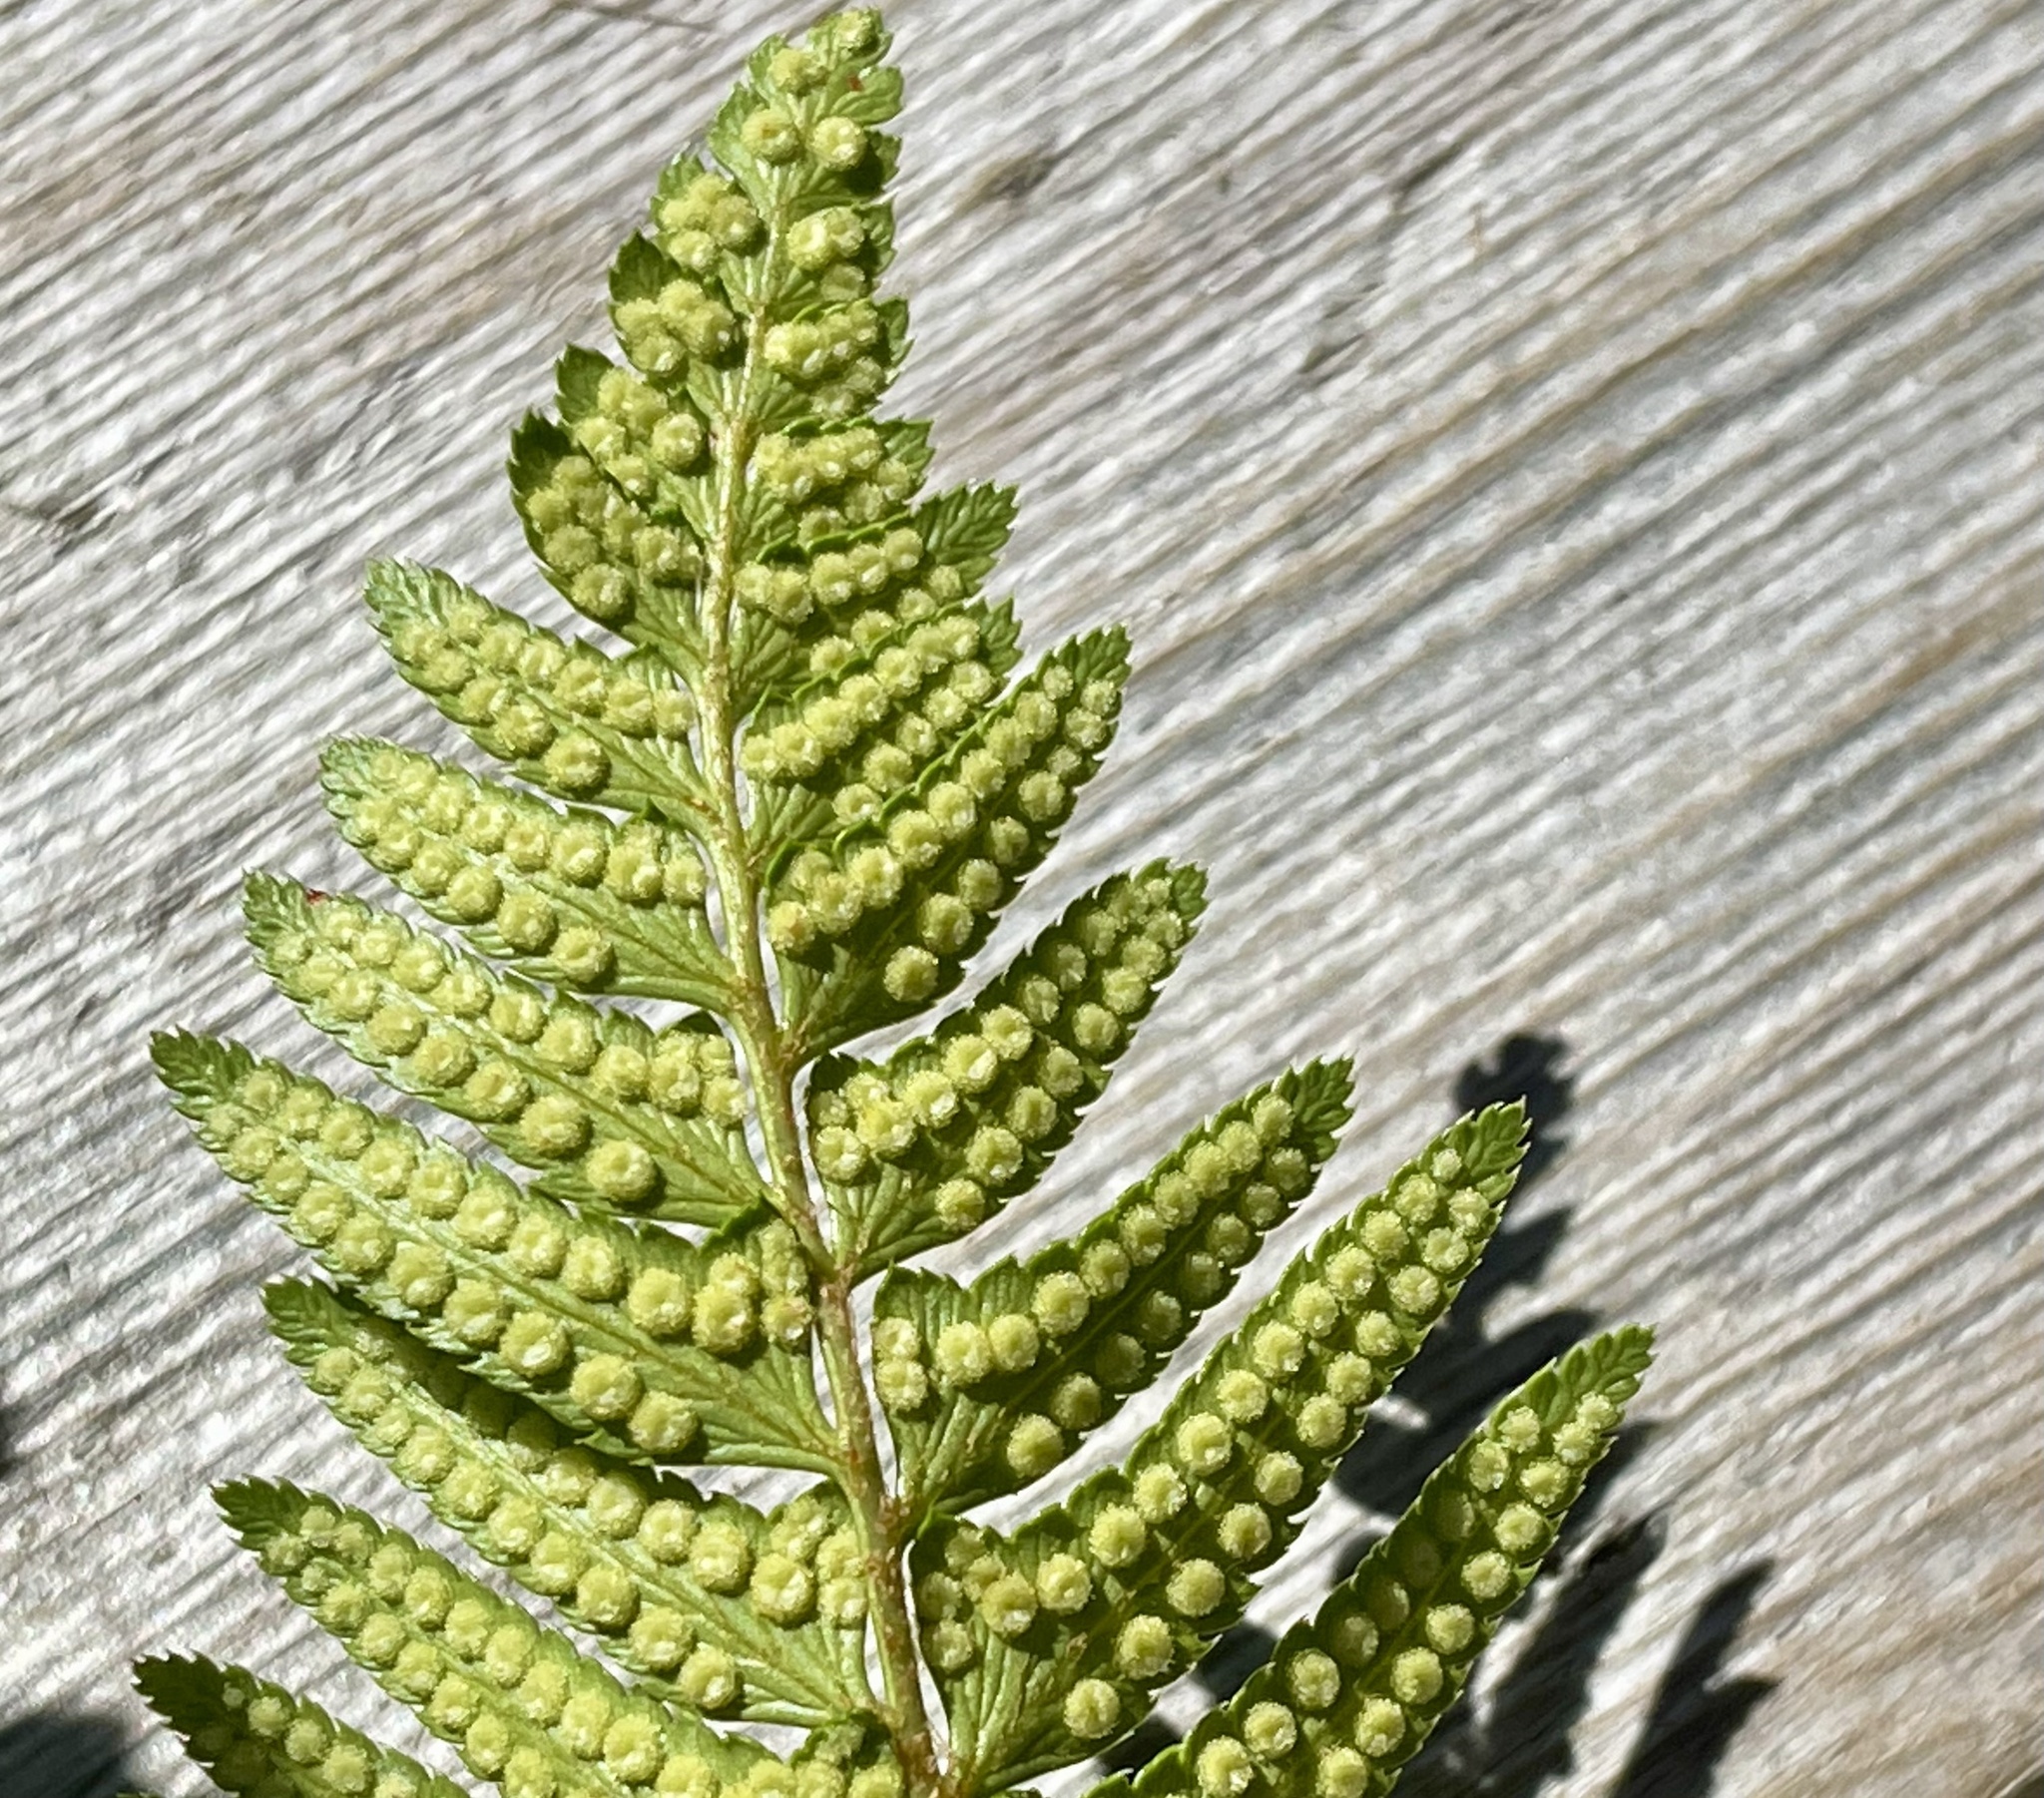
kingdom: Plantae
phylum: Tracheophyta
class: Polypodiopsida
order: Polypodiales
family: Dryopteridaceae
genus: Polystichum
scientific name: Polystichum munitum
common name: Western sword-fern
